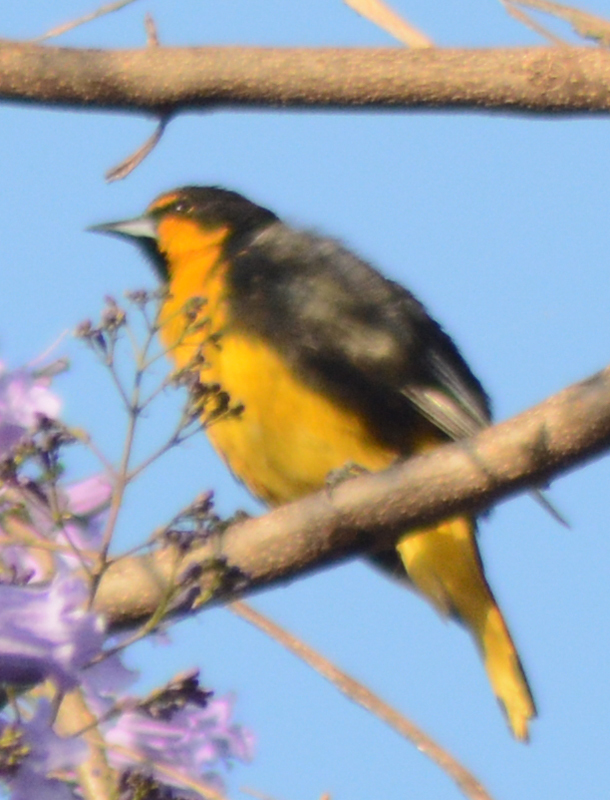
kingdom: Animalia
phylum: Chordata
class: Aves
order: Passeriformes
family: Icteridae
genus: Icterus
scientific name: Icterus abeillei
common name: Black-backed oriole
